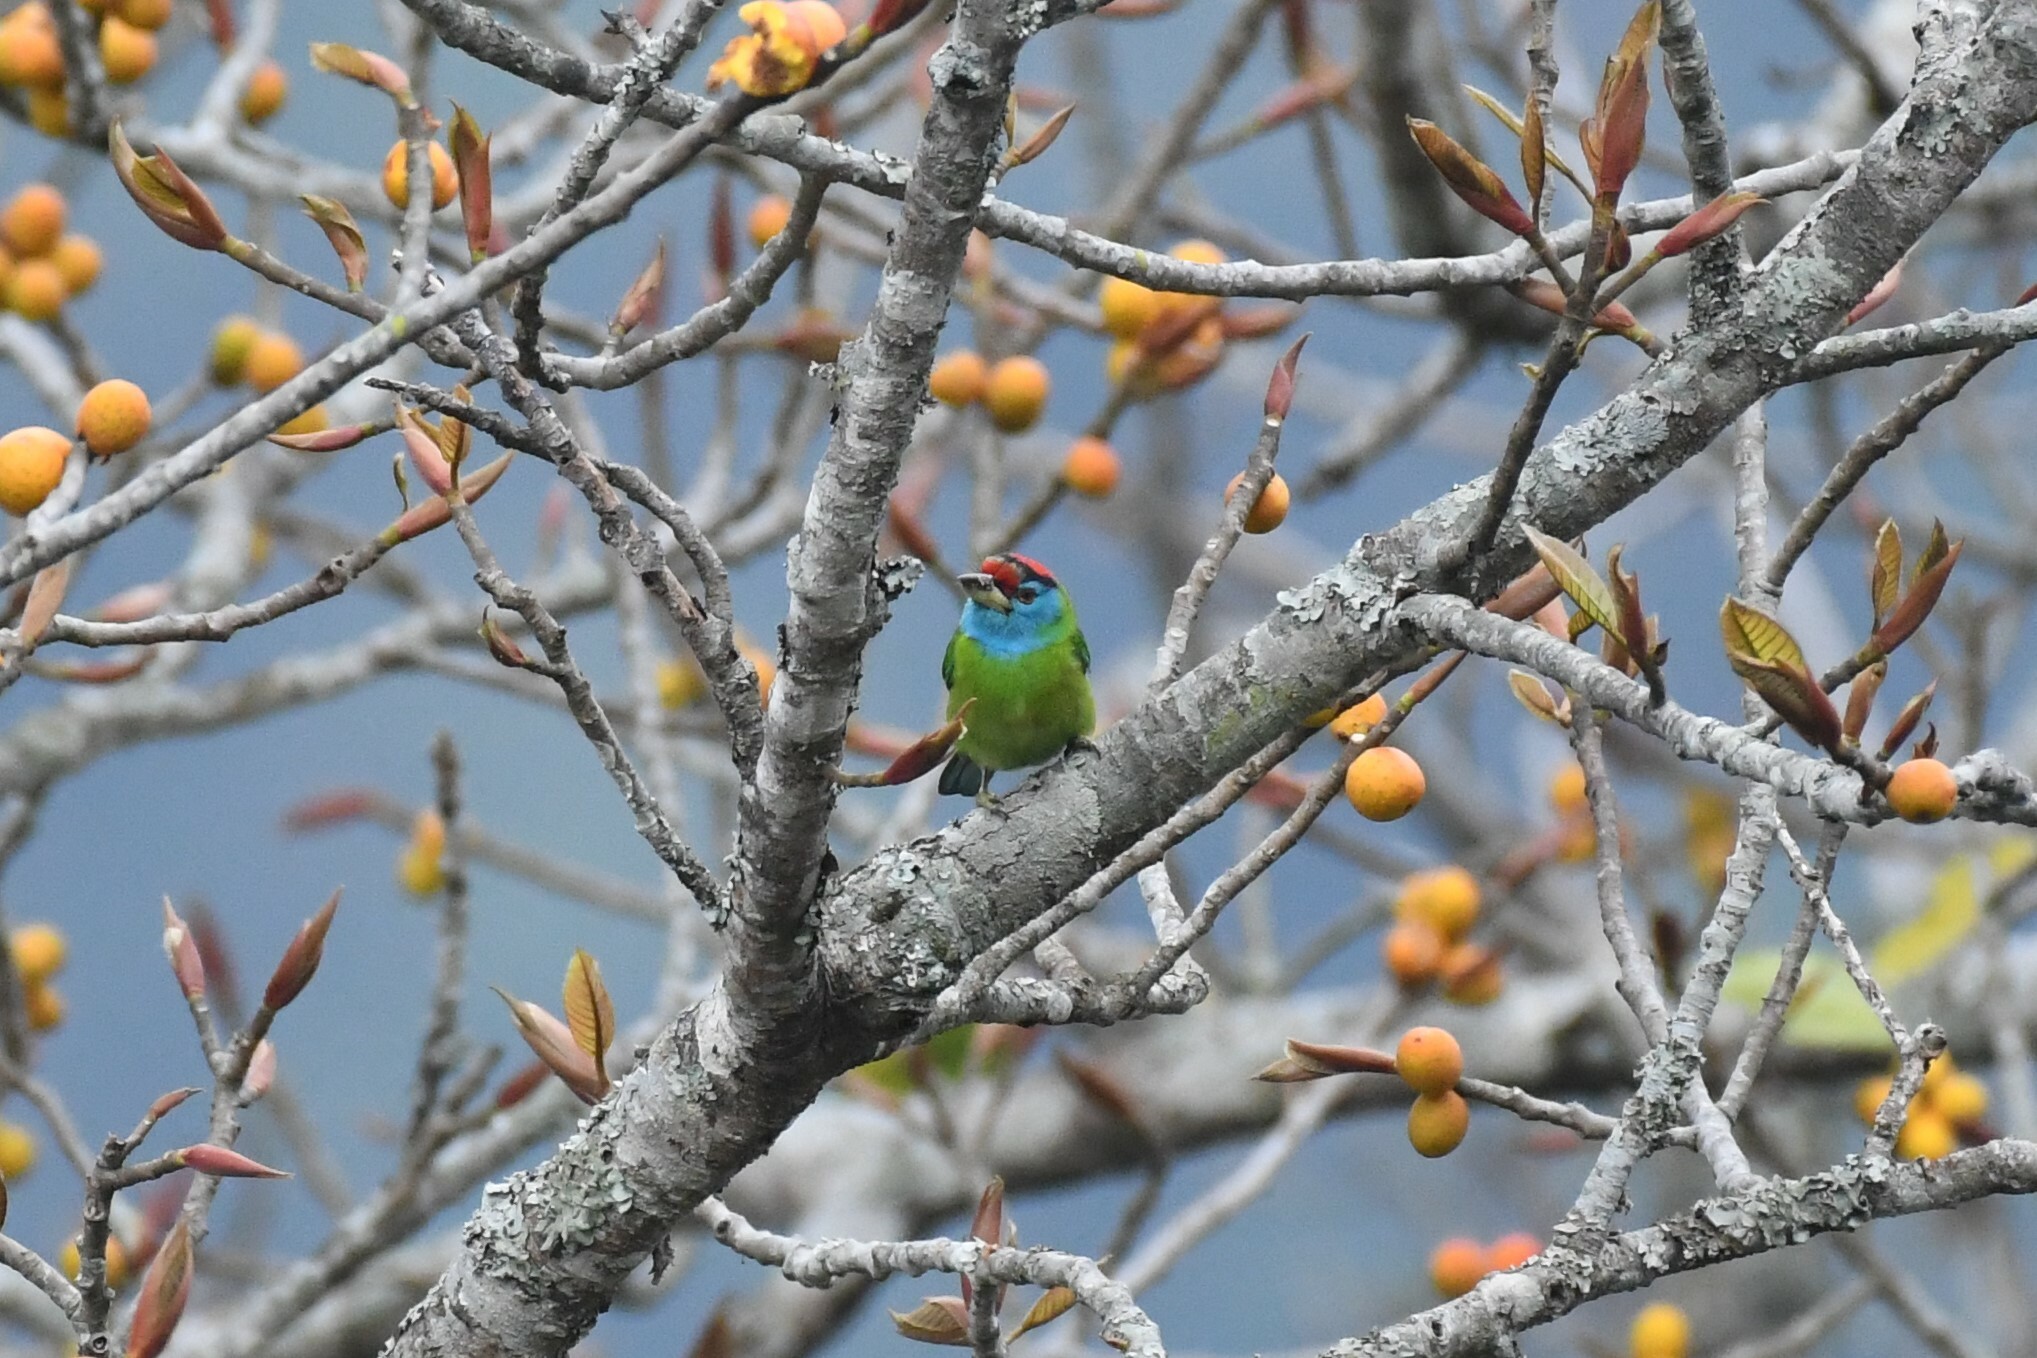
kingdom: Animalia
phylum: Chordata
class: Aves
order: Piciformes
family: Megalaimidae
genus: Psilopogon
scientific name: Psilopogon asiaticus
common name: Blue-throated barbet
